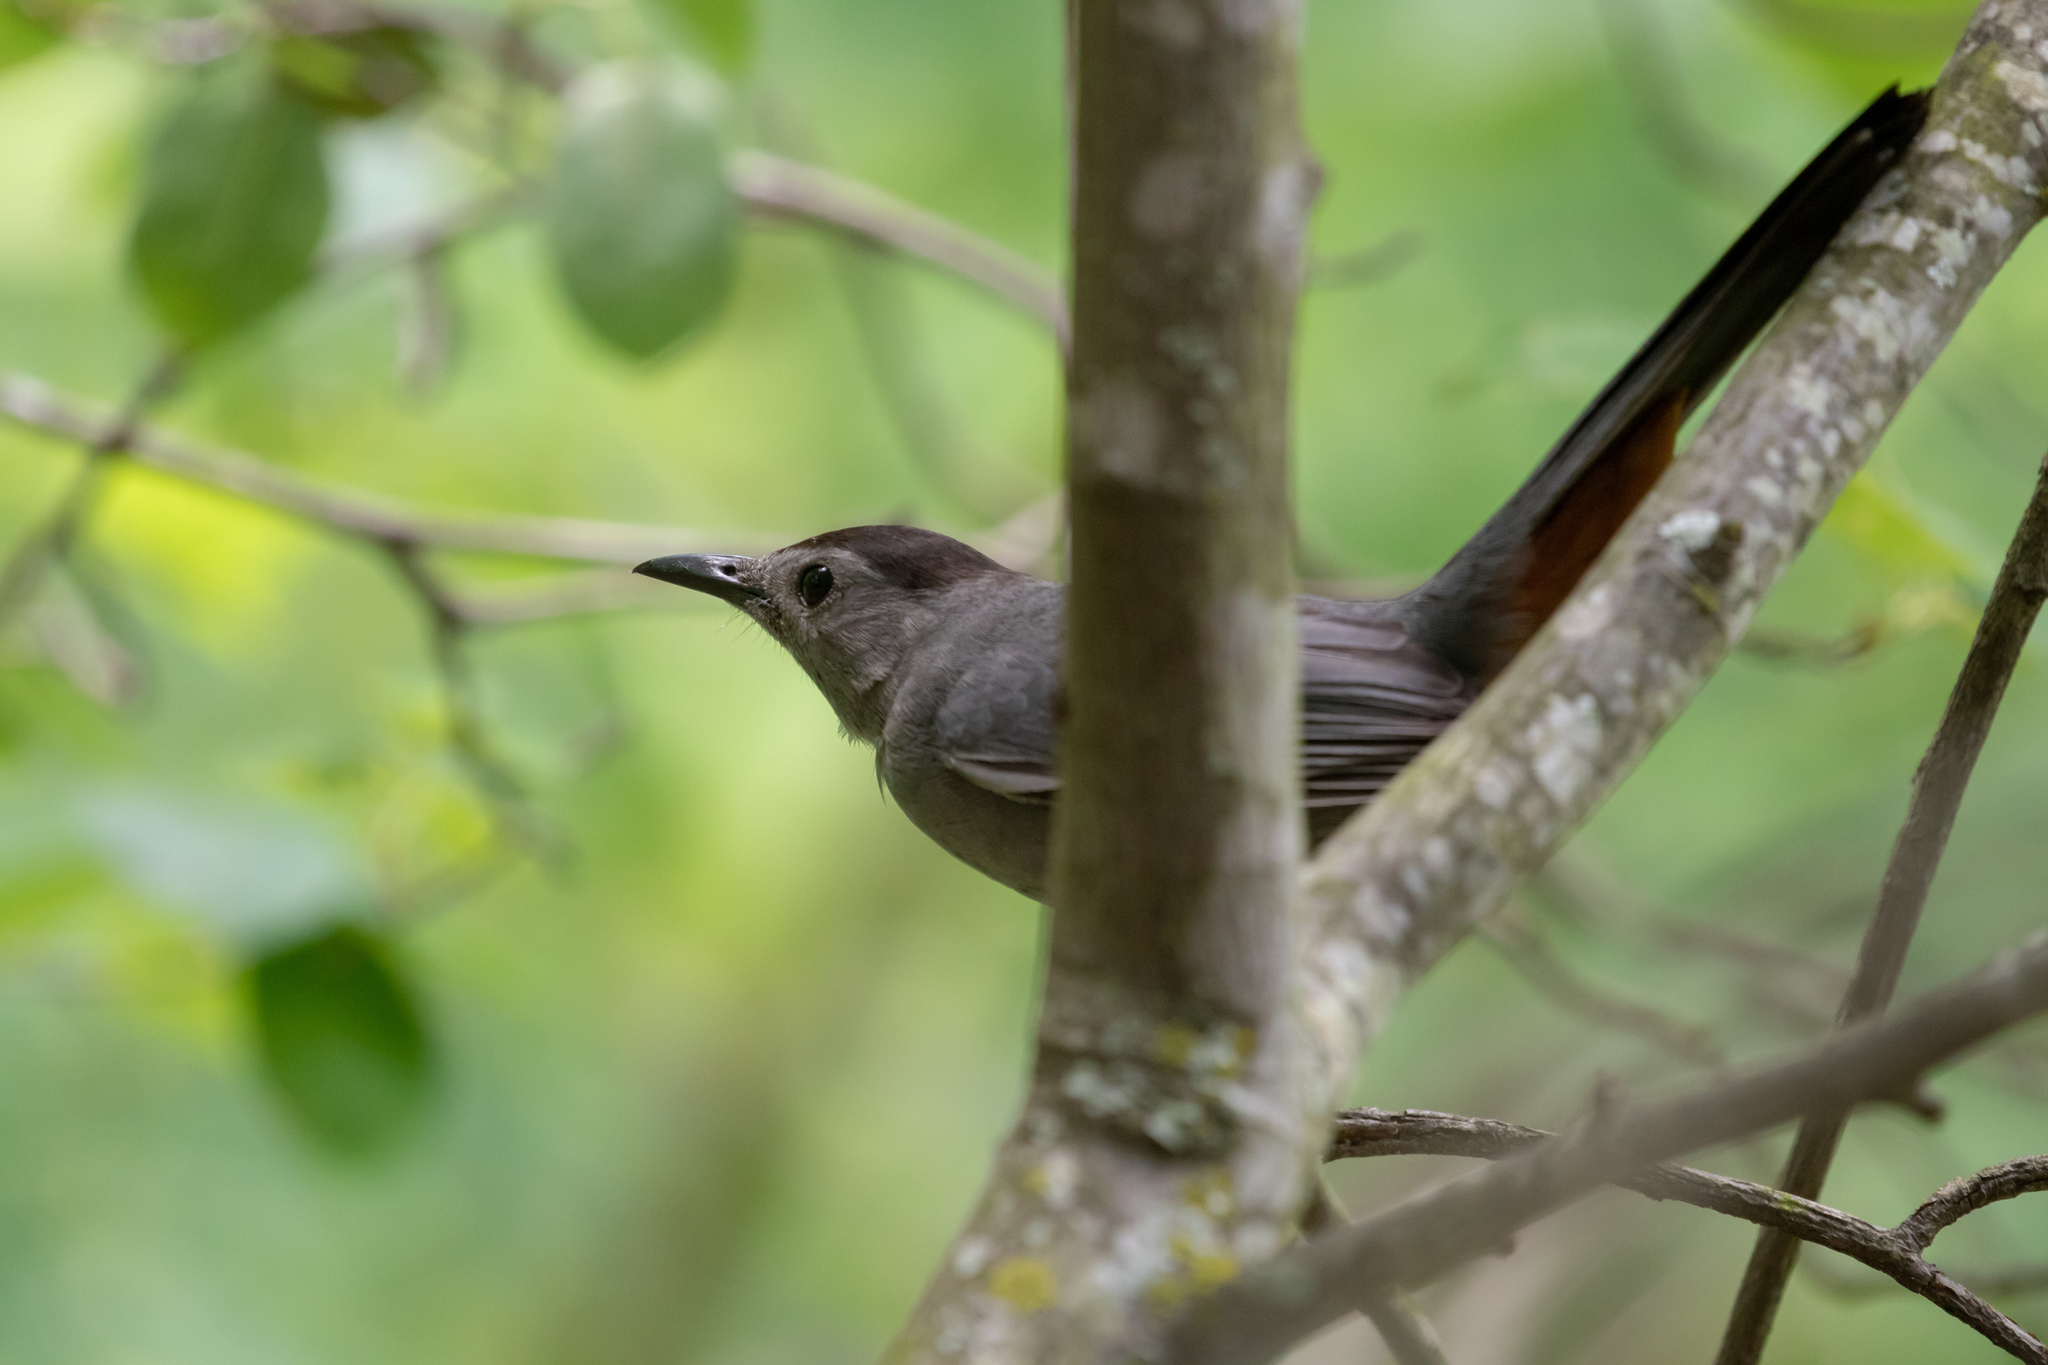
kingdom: Animalia
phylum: Chordata
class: Aves
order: Passeriformes
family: Mimidae
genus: Dumetella
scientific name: Dumetella carolinensis
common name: Gray catbird
